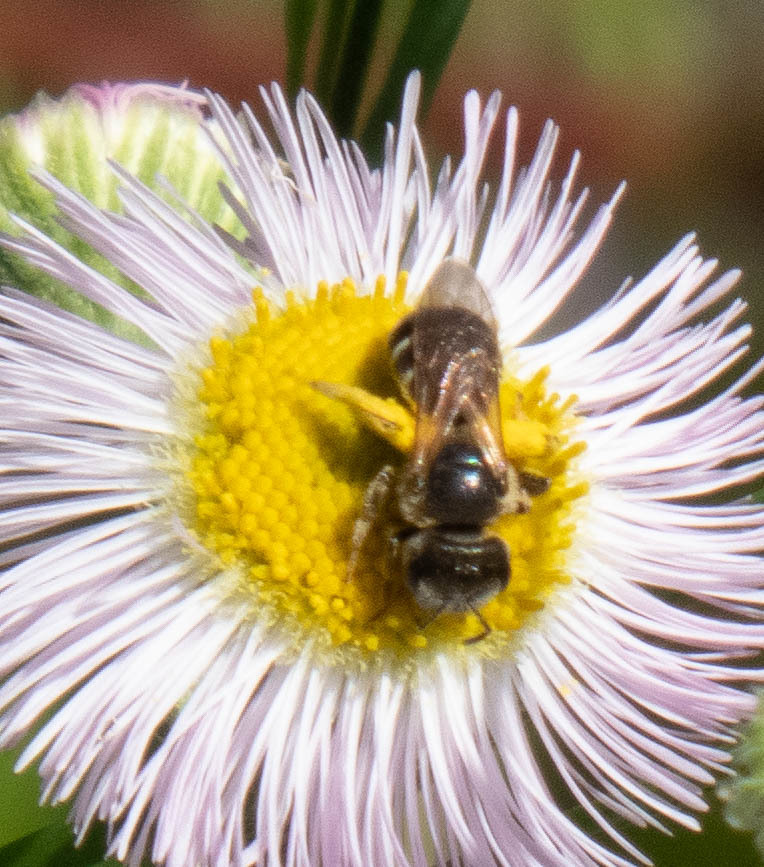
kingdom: Animalia
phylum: Arthropoda
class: Insecta
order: Hymenoptera
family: Halictidae
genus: Halictus
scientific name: Halictus ligatus
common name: Ligated furrow bee
